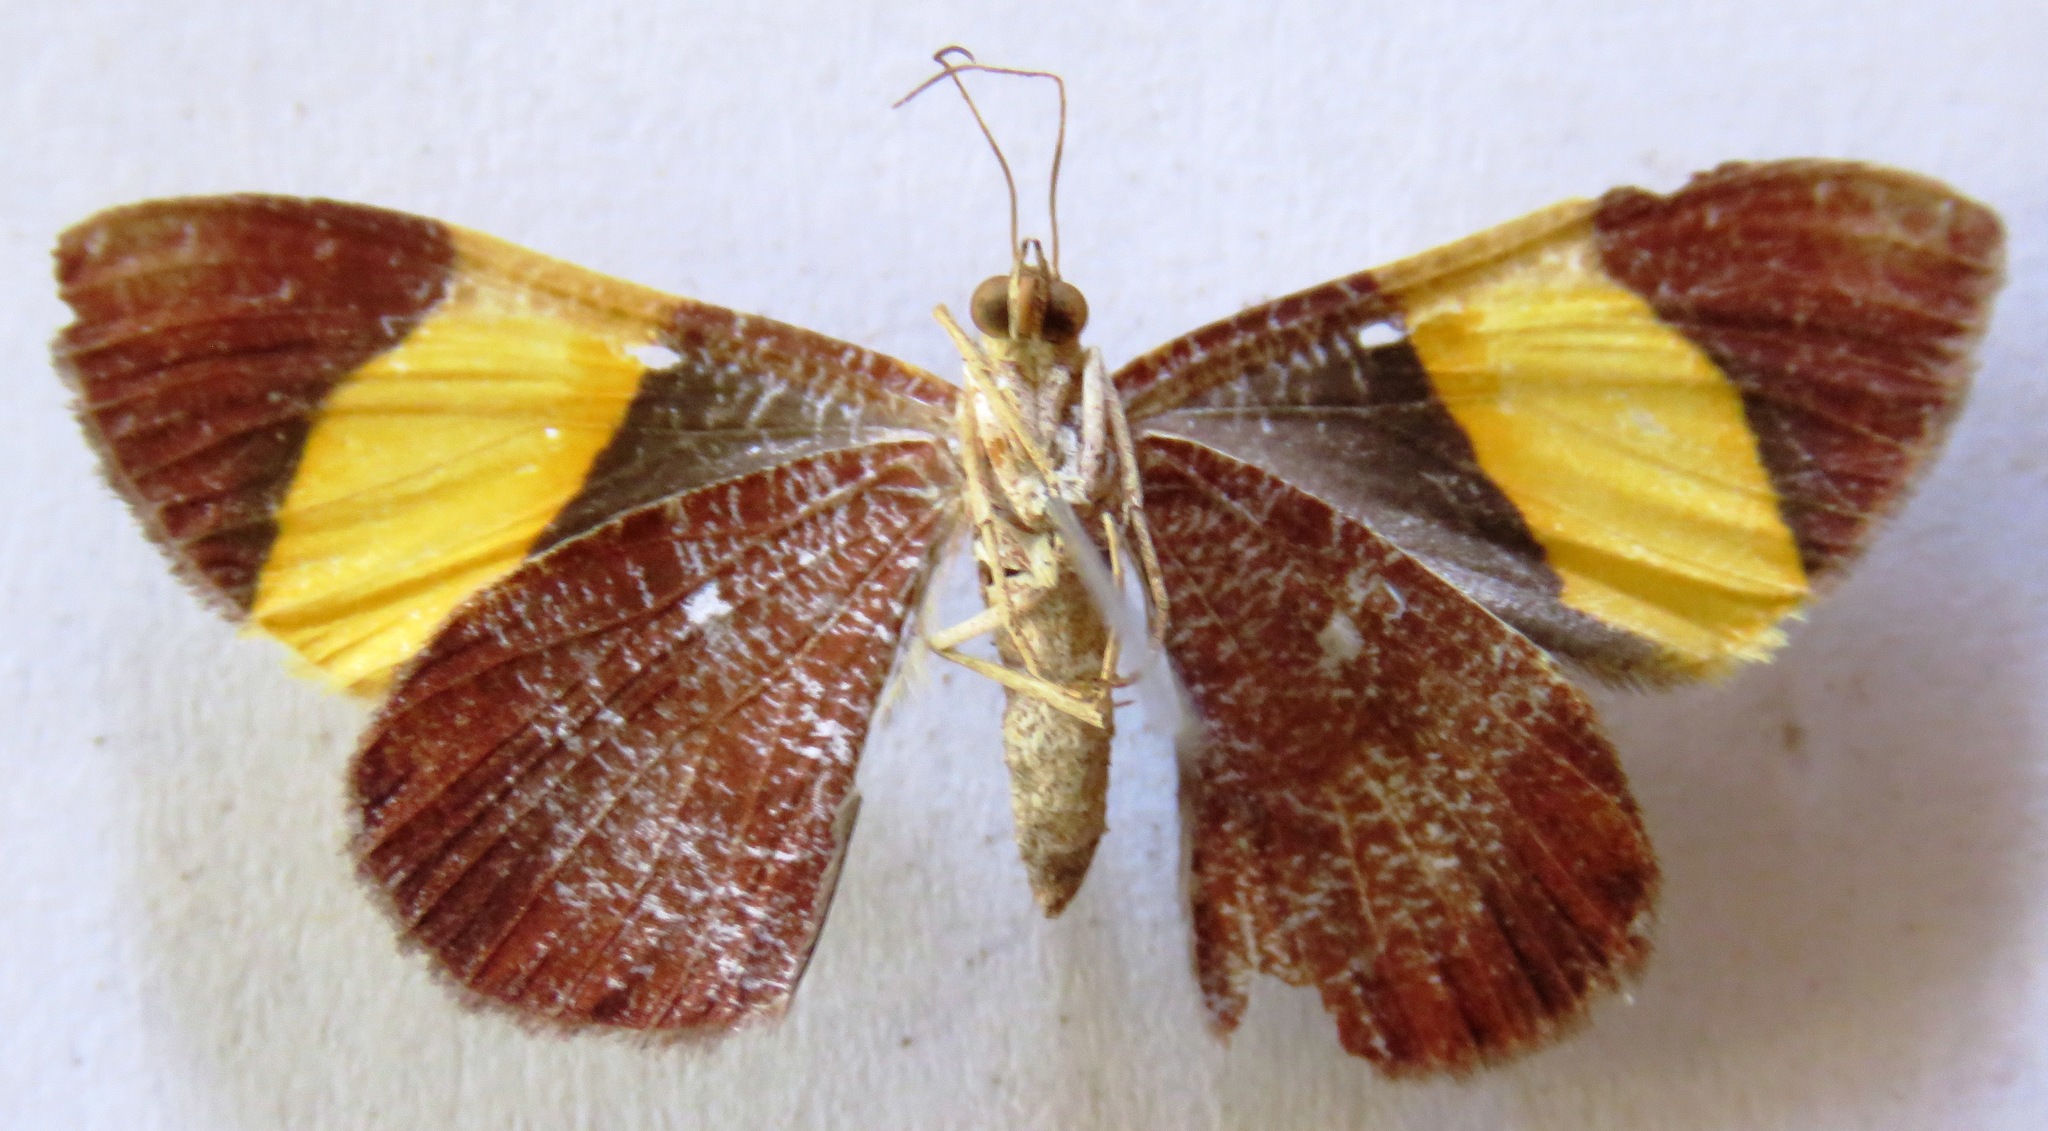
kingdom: Animalia
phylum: Arthropoda
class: Insecta
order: Lepidoptera
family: Geometridae
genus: Hagnagora
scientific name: Hagnagora ephestris
